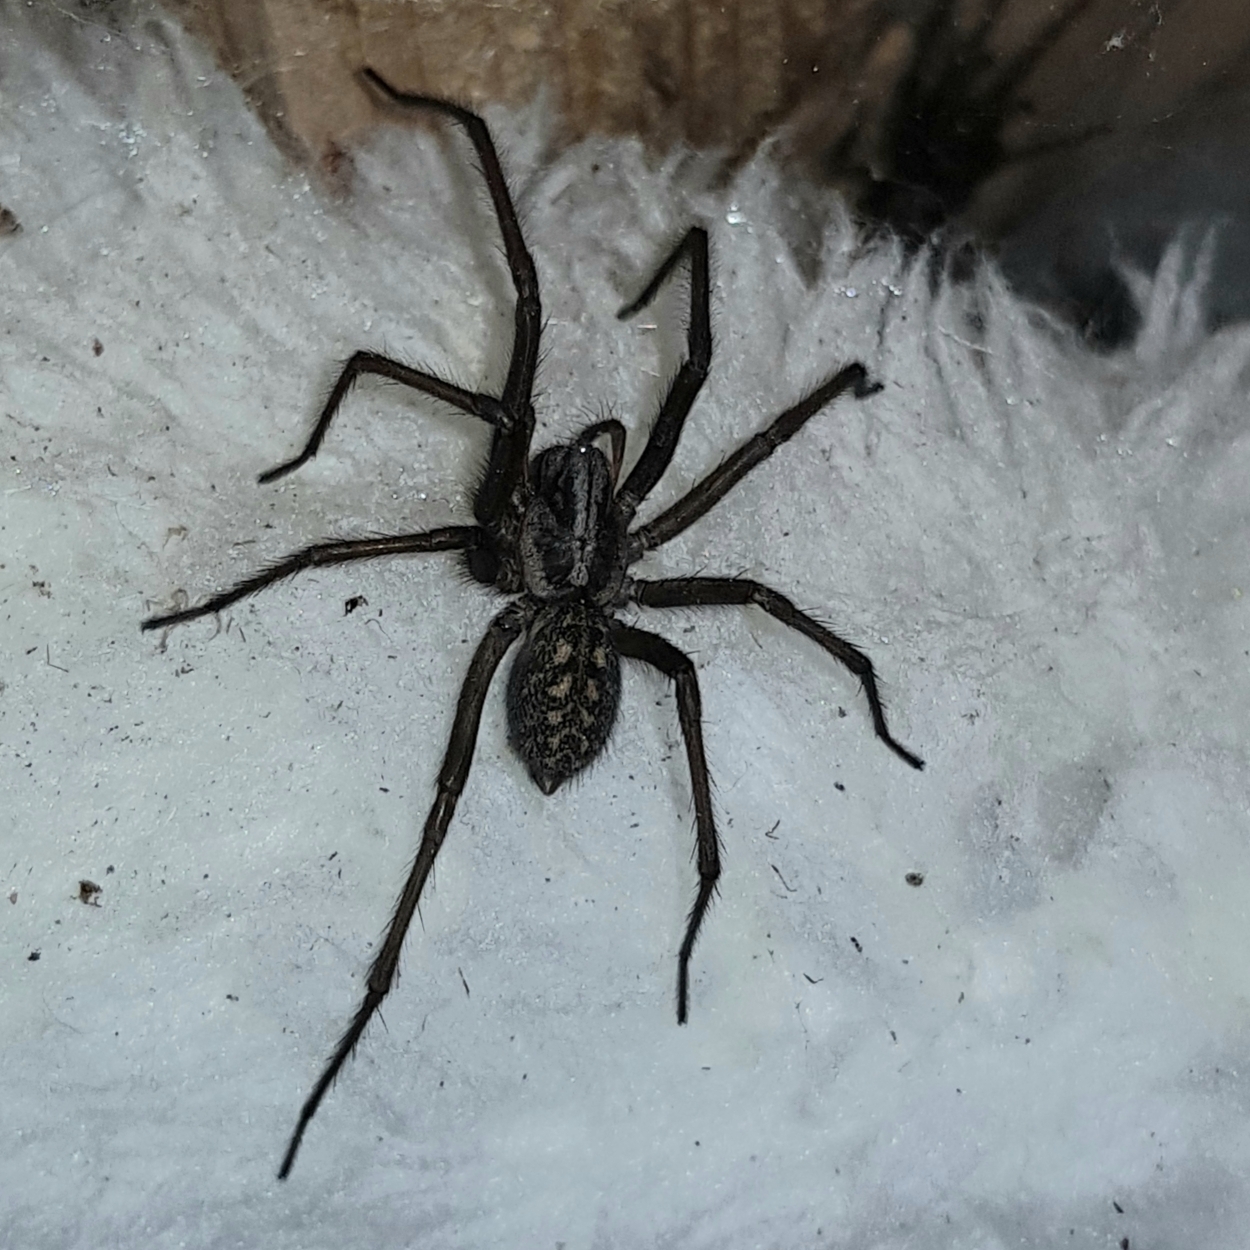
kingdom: Animalia
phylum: Arthropoda
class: Arachnida
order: Araneae
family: Agelenidae
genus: Eratigena
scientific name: Eratigena atrica
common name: Giant house spider
